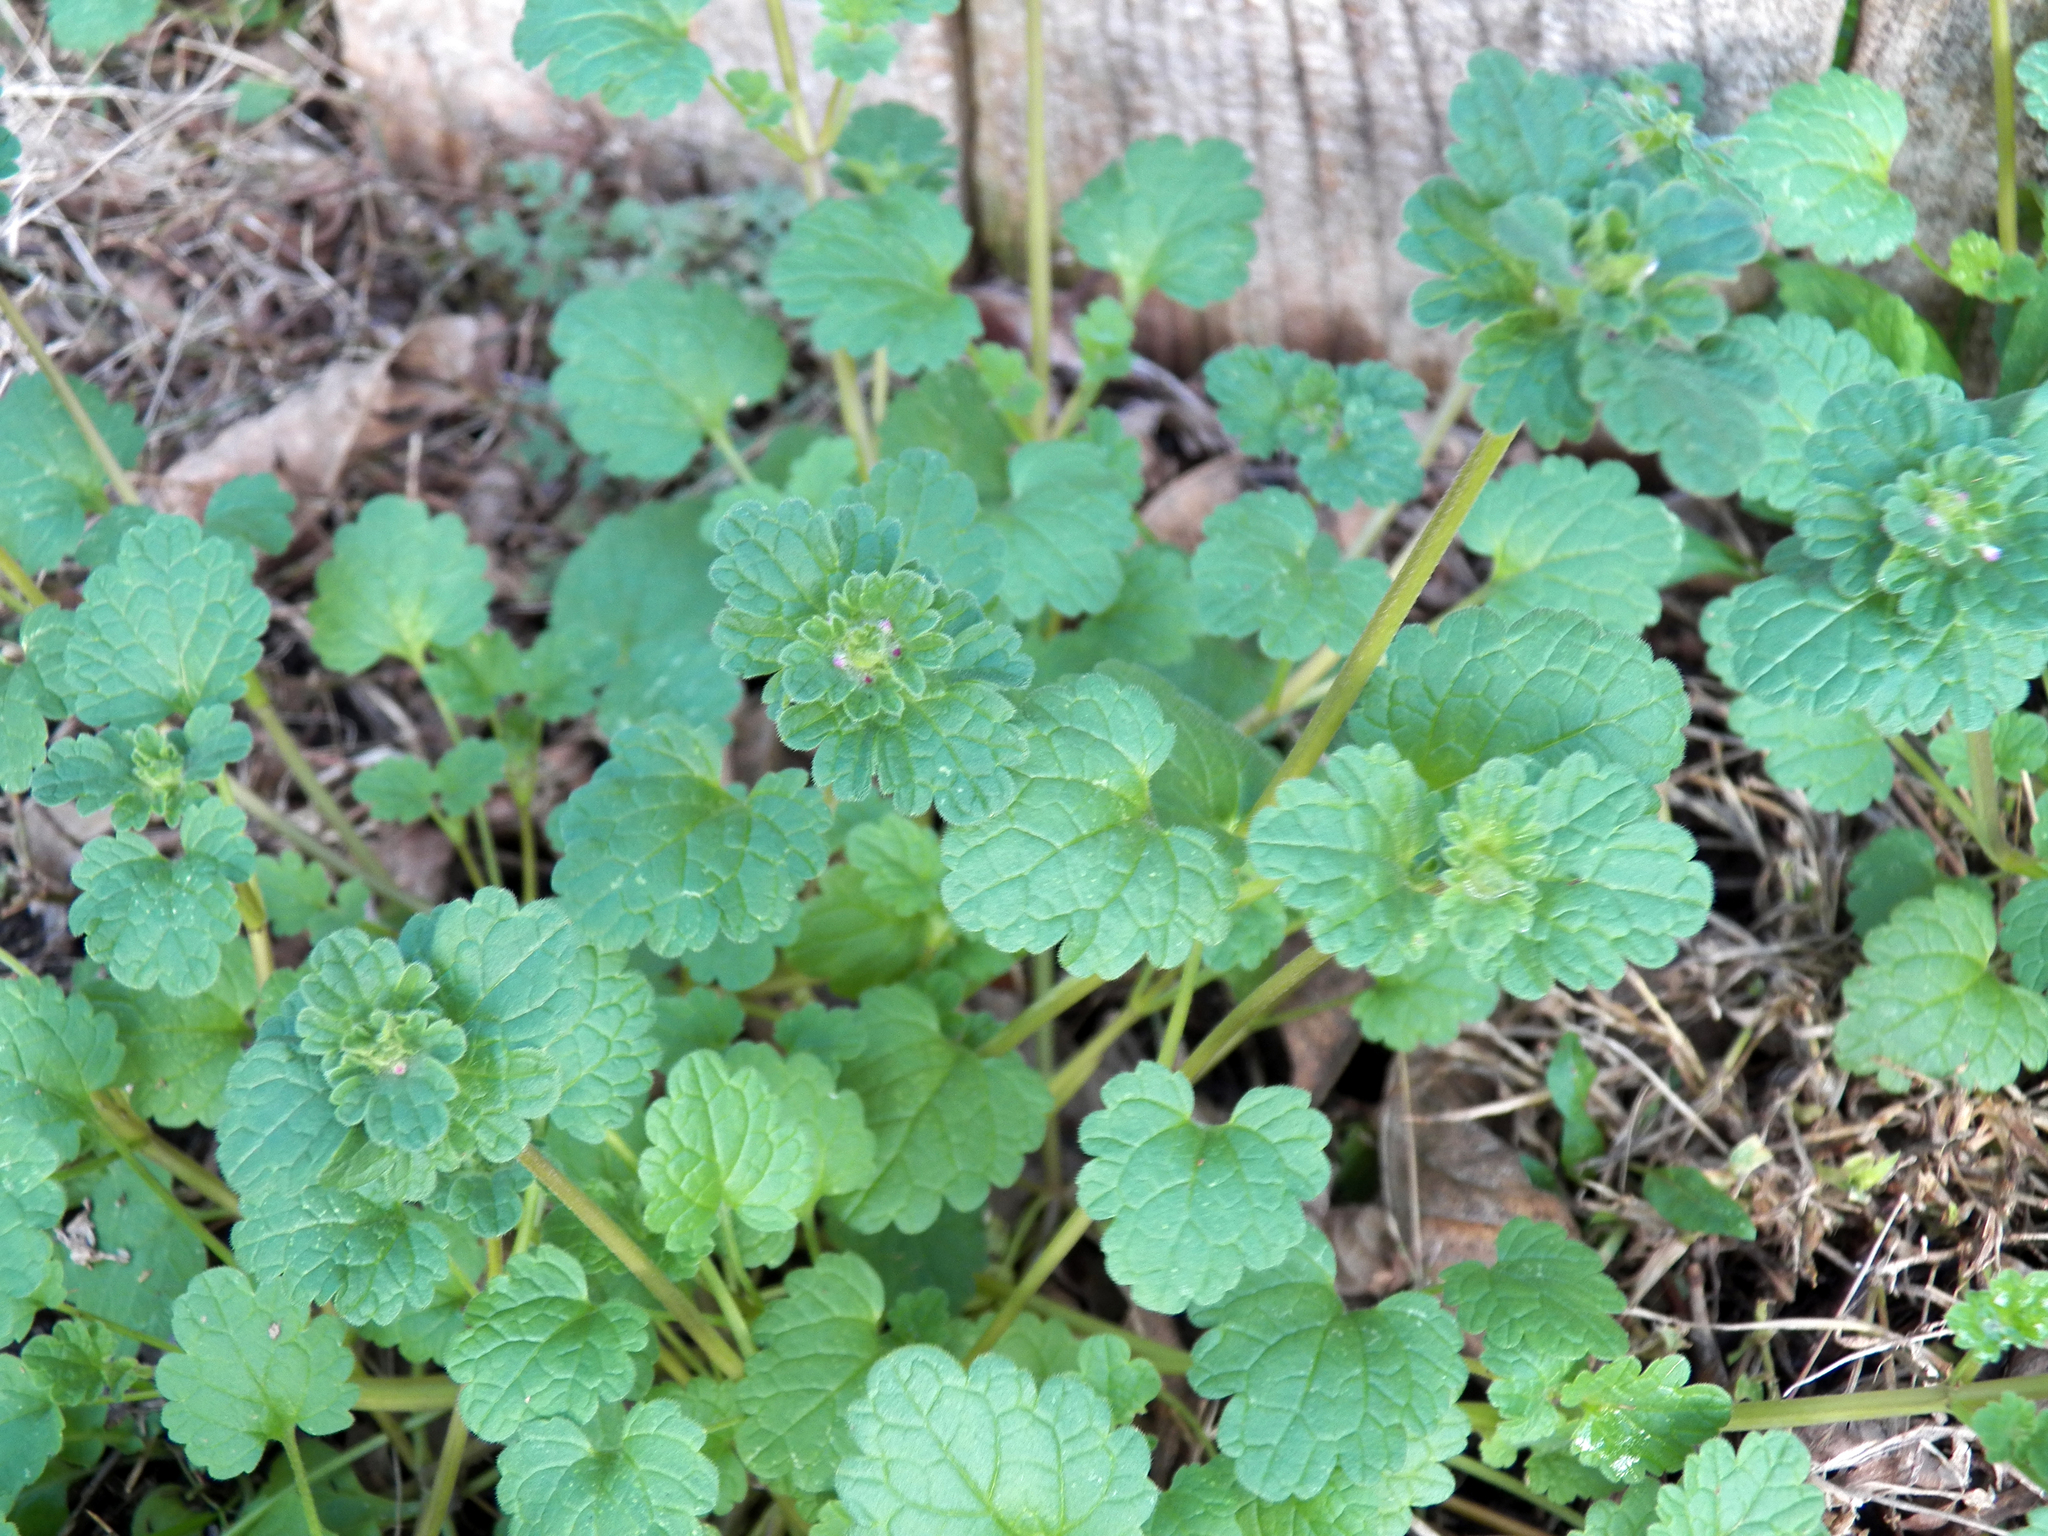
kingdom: Plantae
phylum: Tracheophyta
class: Magnoliopsida
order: Lamiales
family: Lamiaceae
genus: Lamium
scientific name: Lamium amplexicaule
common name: Henbit dead-nettle
